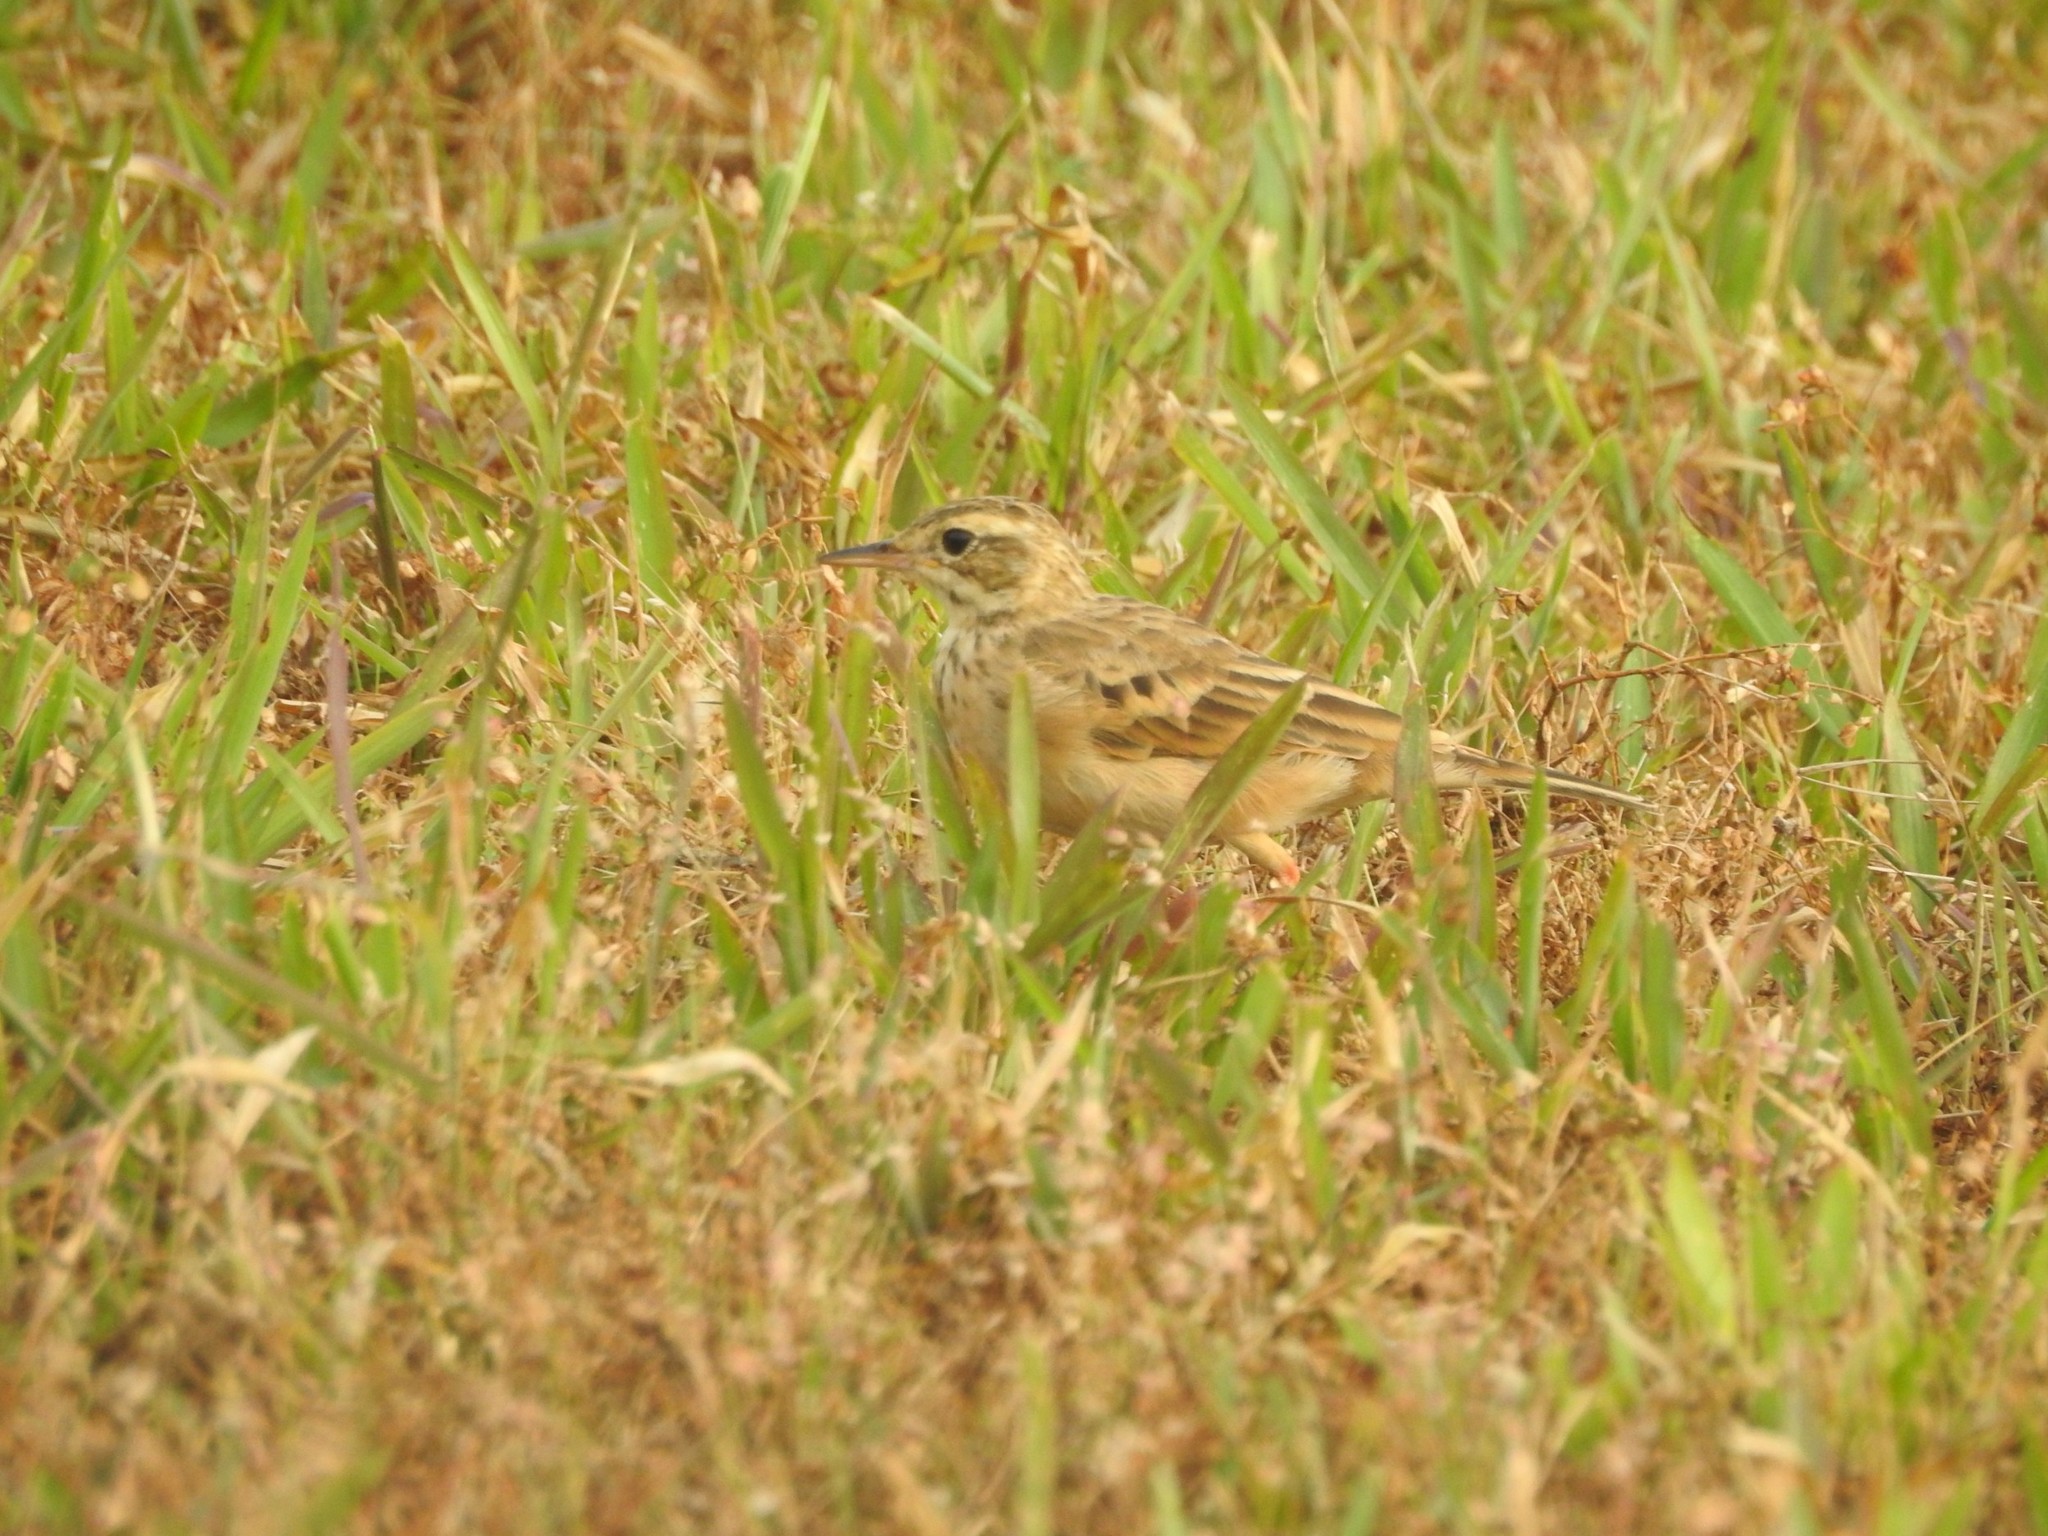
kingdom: Animalia
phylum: Chordata
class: Aves
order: Passeriformes
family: Motacillidae
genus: Anthus
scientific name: Anthus rufulus
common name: Paddyfield pipit
